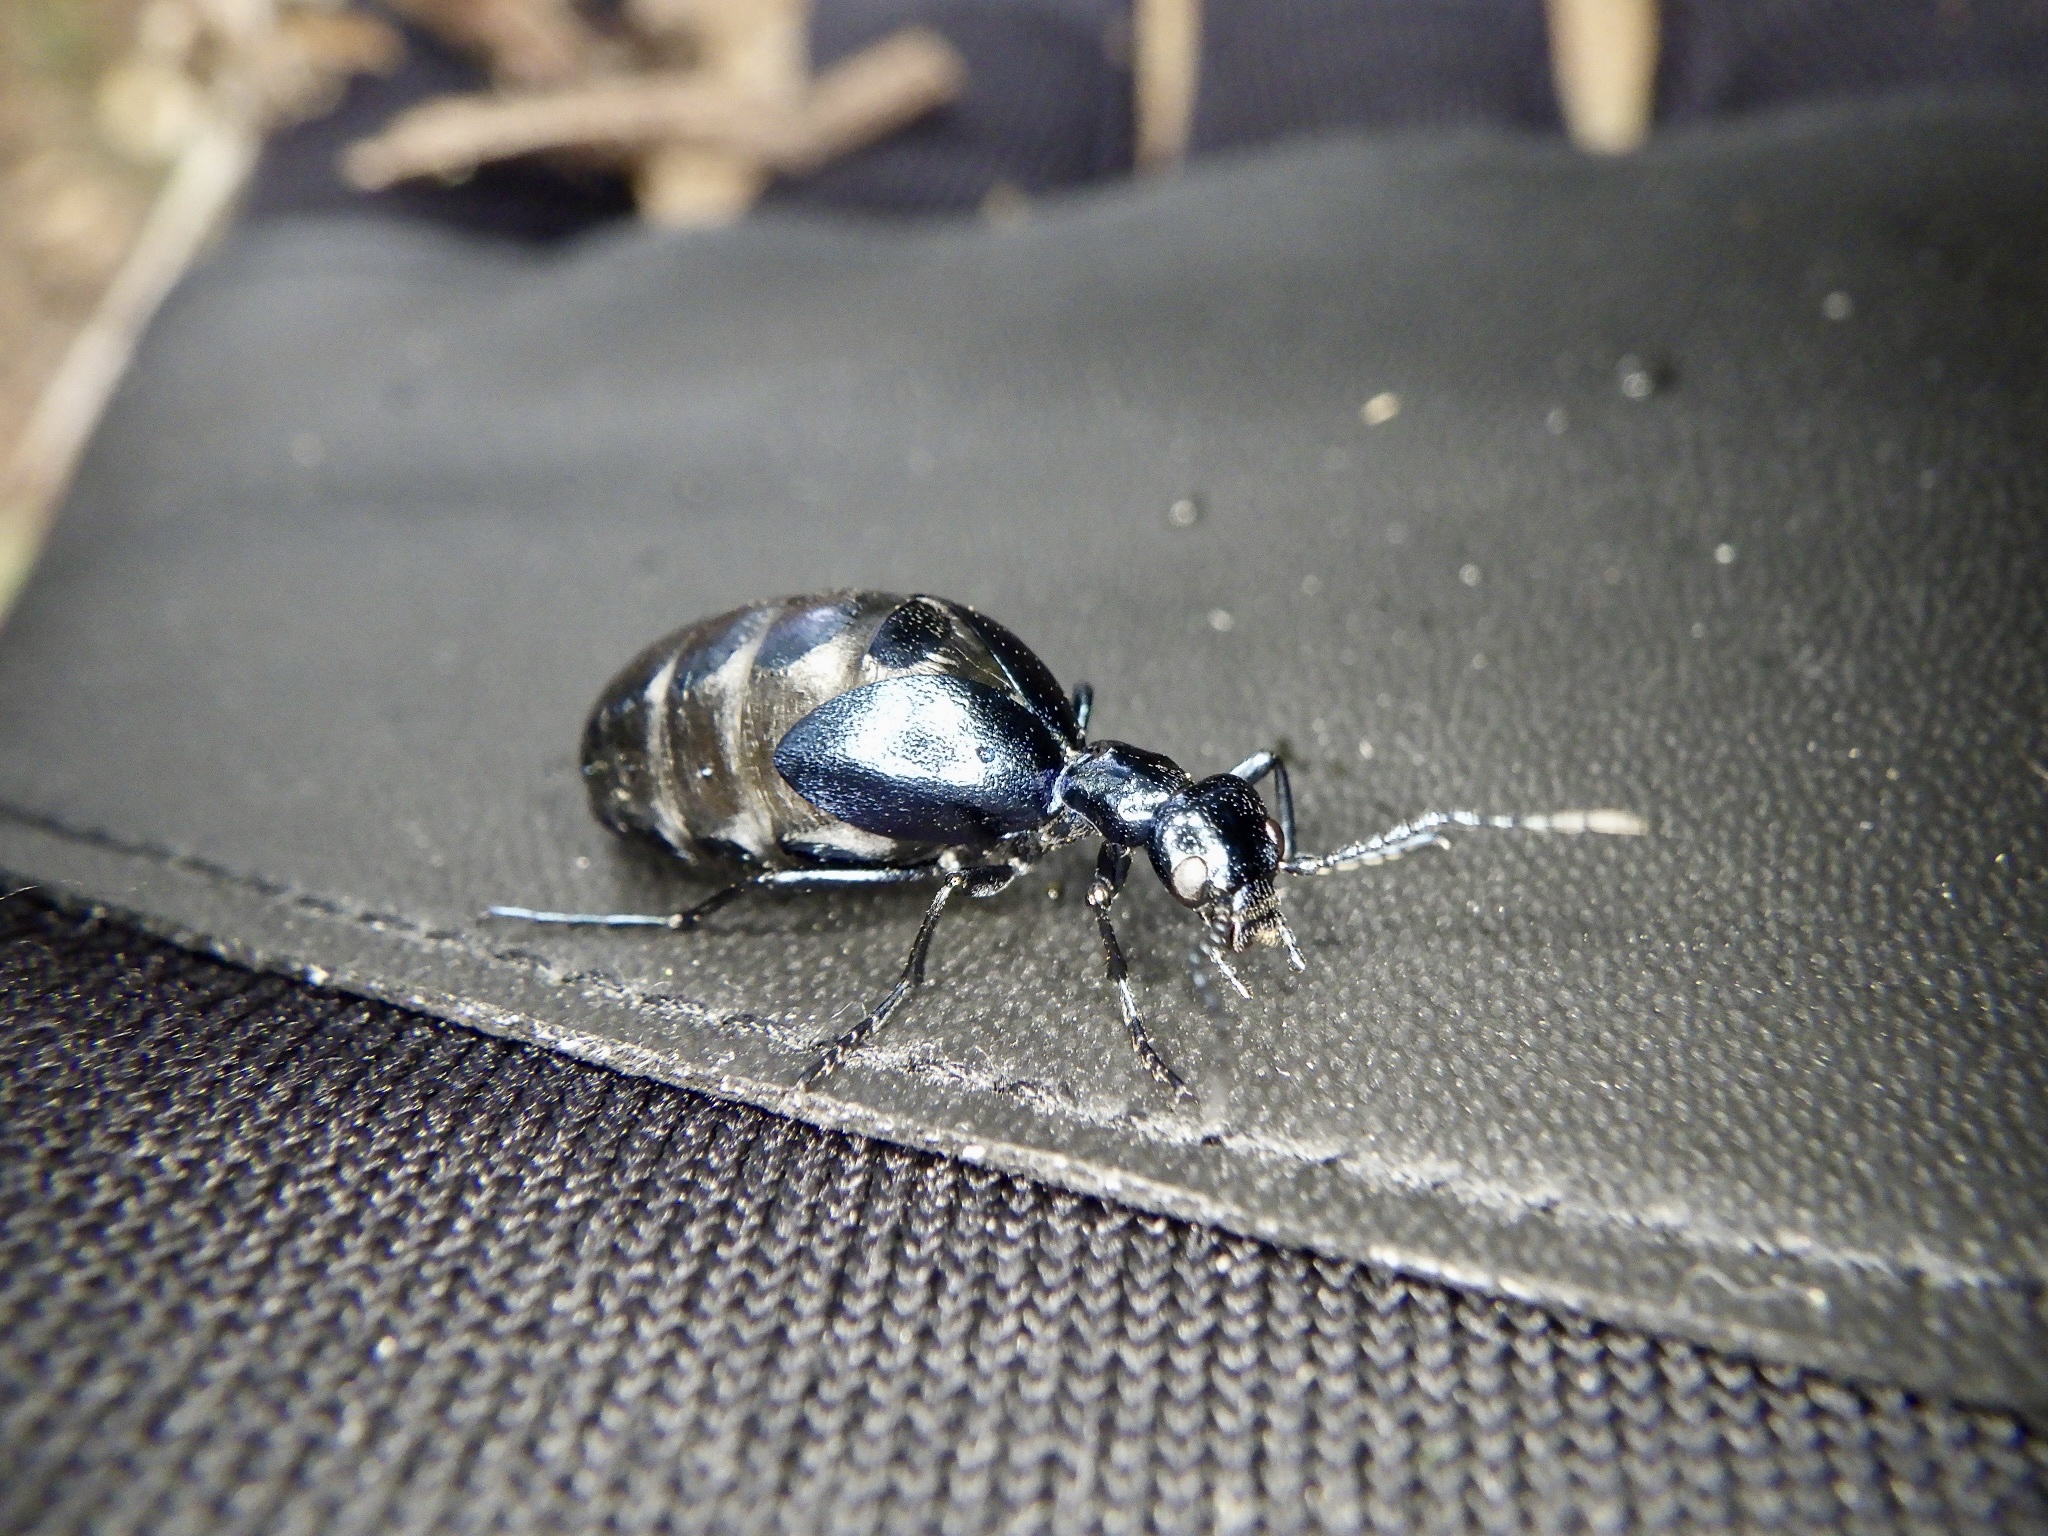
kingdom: Animalia
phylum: Arthropoda
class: Insecta
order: Coleoptera
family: Meloidae
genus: Meloe
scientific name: Meloe coarctatus
